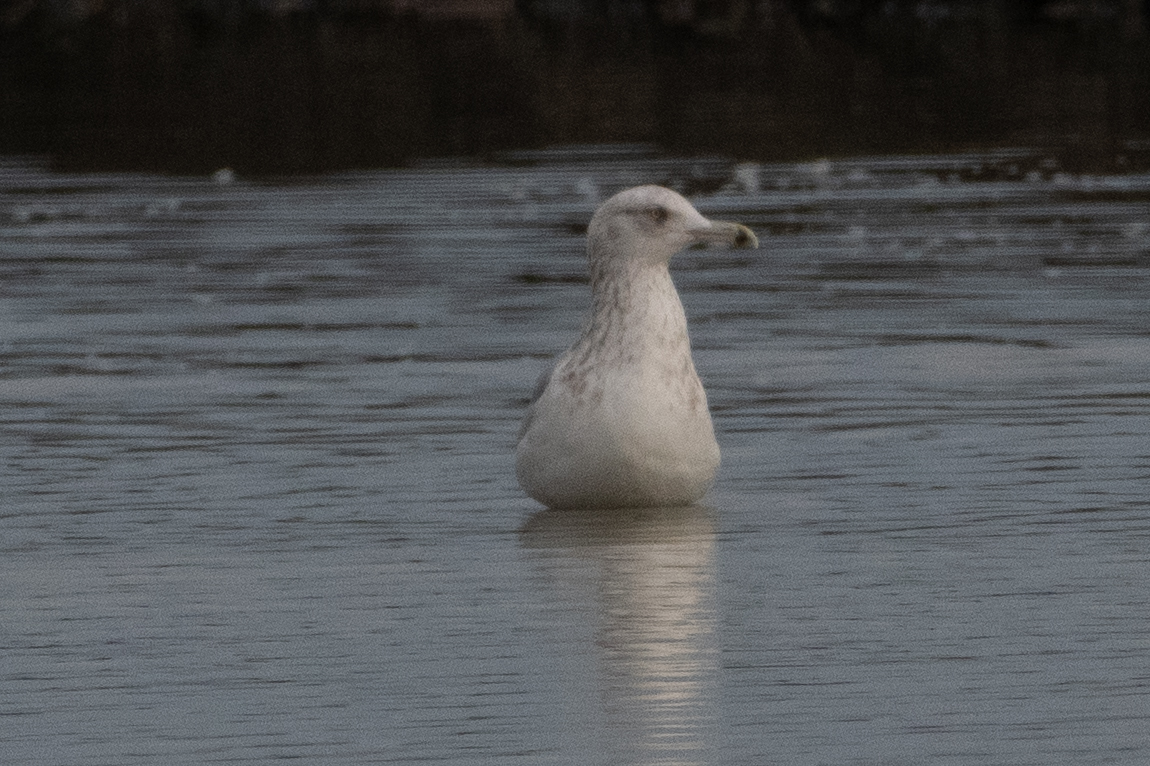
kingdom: Animalia
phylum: Chordata
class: Aves
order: Charadriiformes
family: Laridae
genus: Larus
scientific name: Larus argentatus
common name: Herring gull
